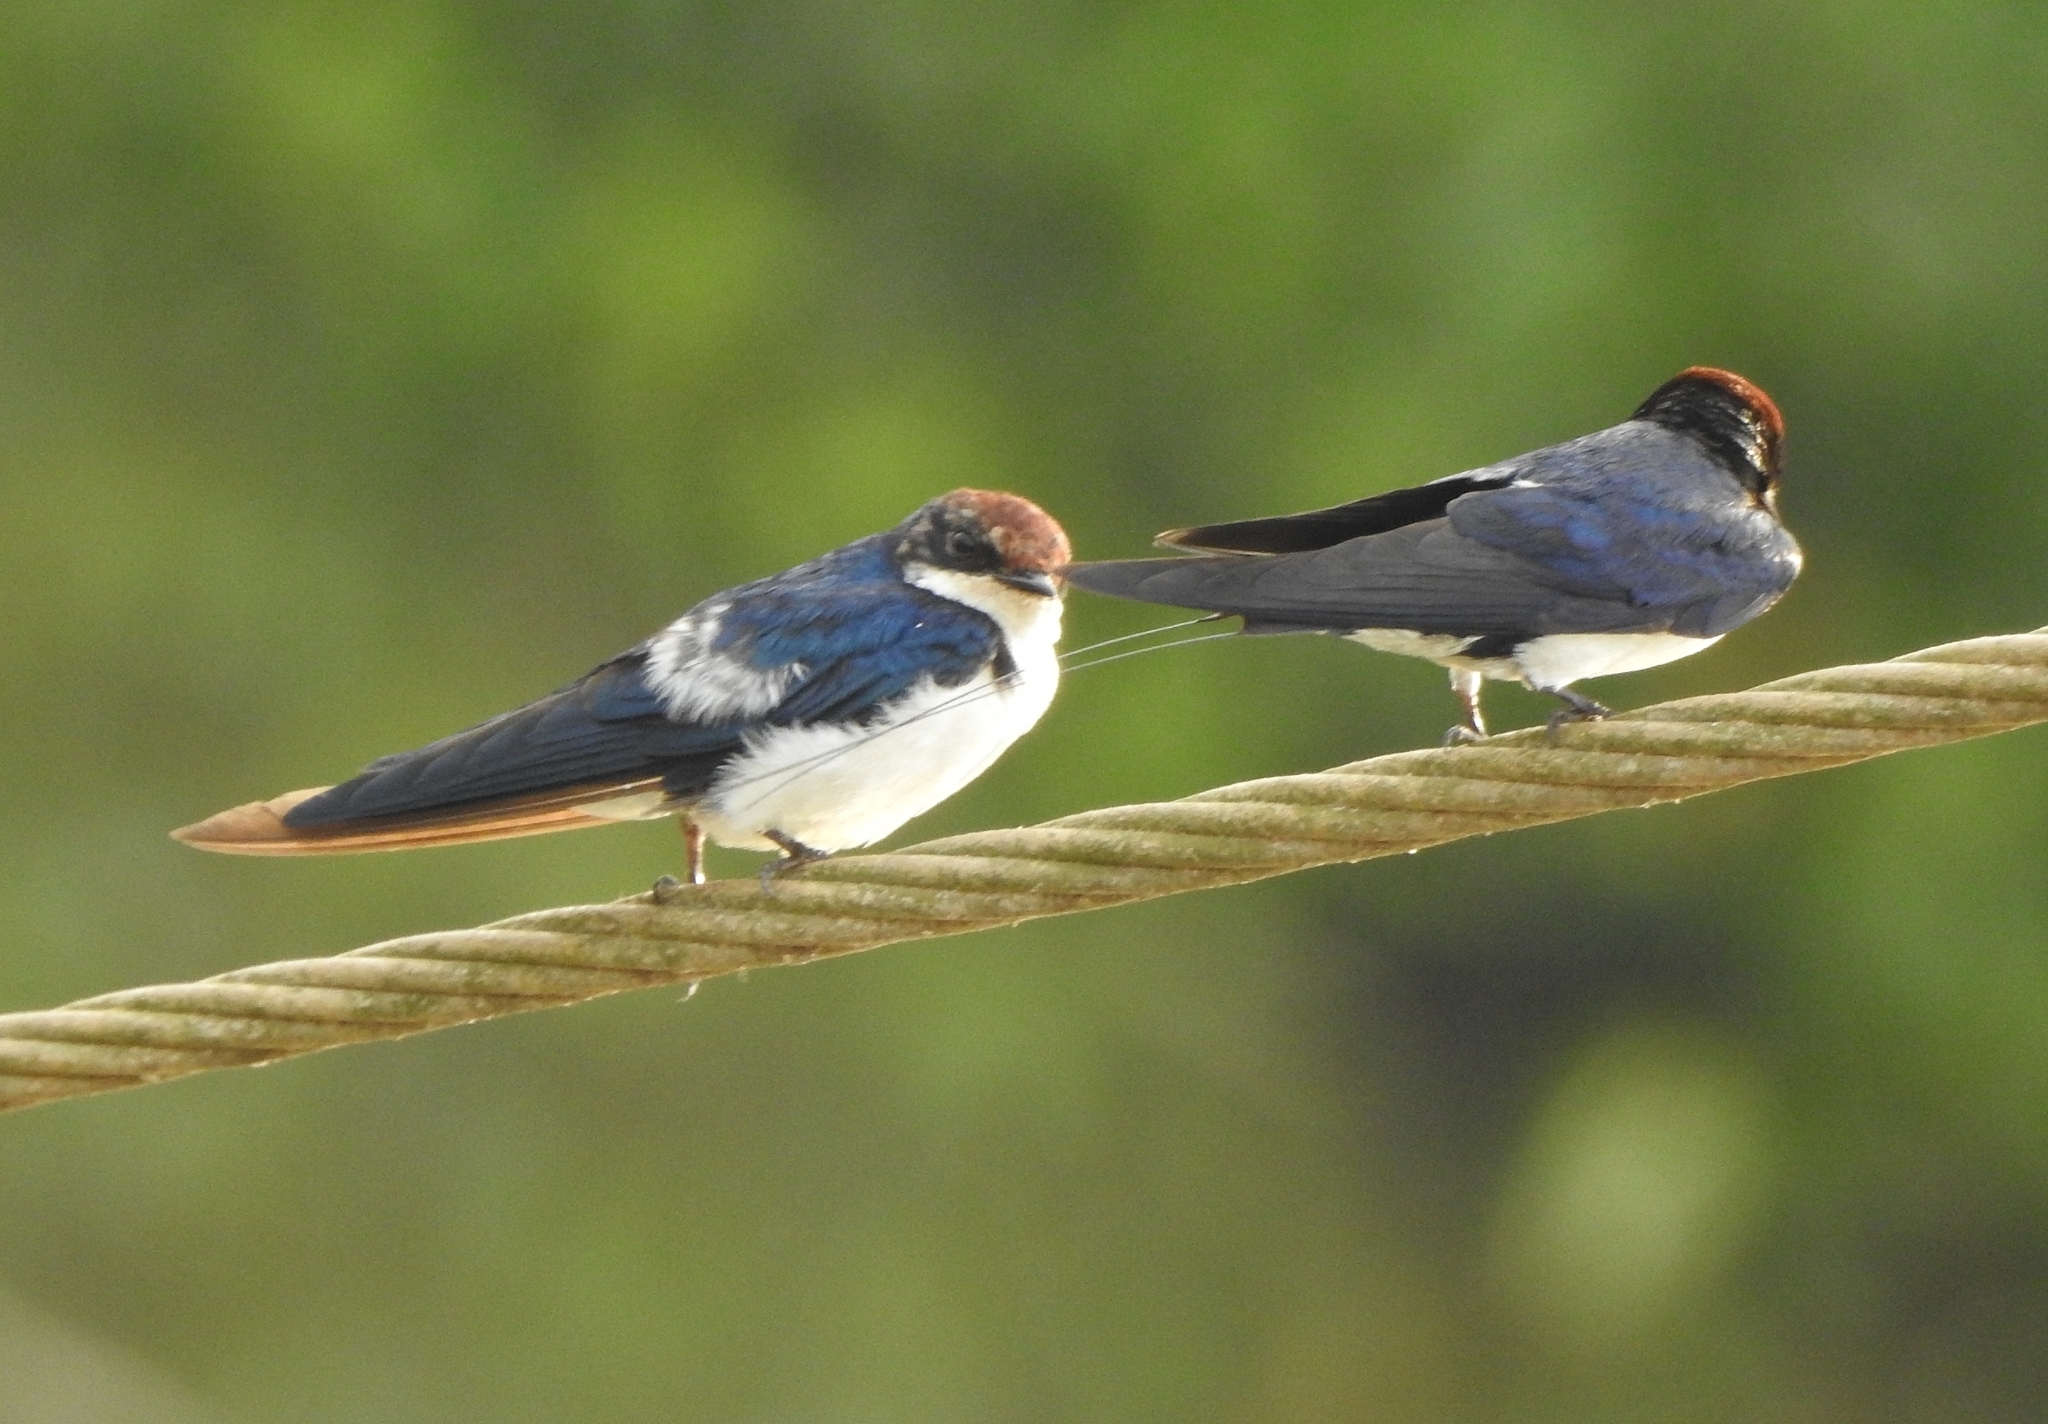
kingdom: Animalia
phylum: Chordata
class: Aves
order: Passeriformes
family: Hirundinidae
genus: Hirundo
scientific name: Hirundo smithii
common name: Wire-tailed swallow
